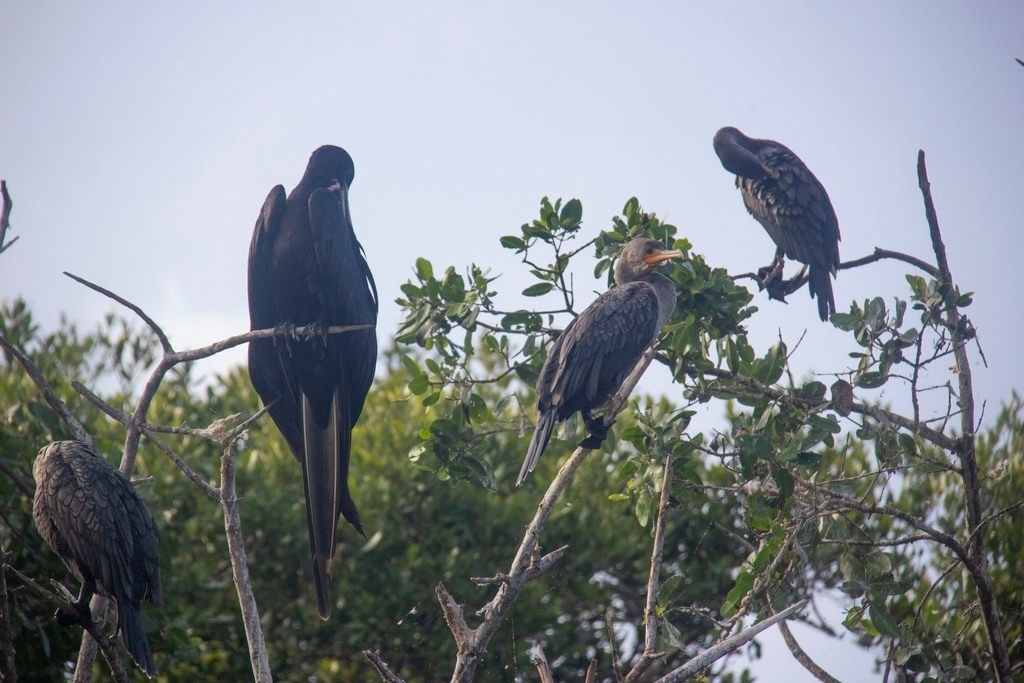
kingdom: Animalia
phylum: Chordata
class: Aves
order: Suliformes
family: Fregatidae
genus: Fregata
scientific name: Fregata magnificens
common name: Magnificent frigatebird
